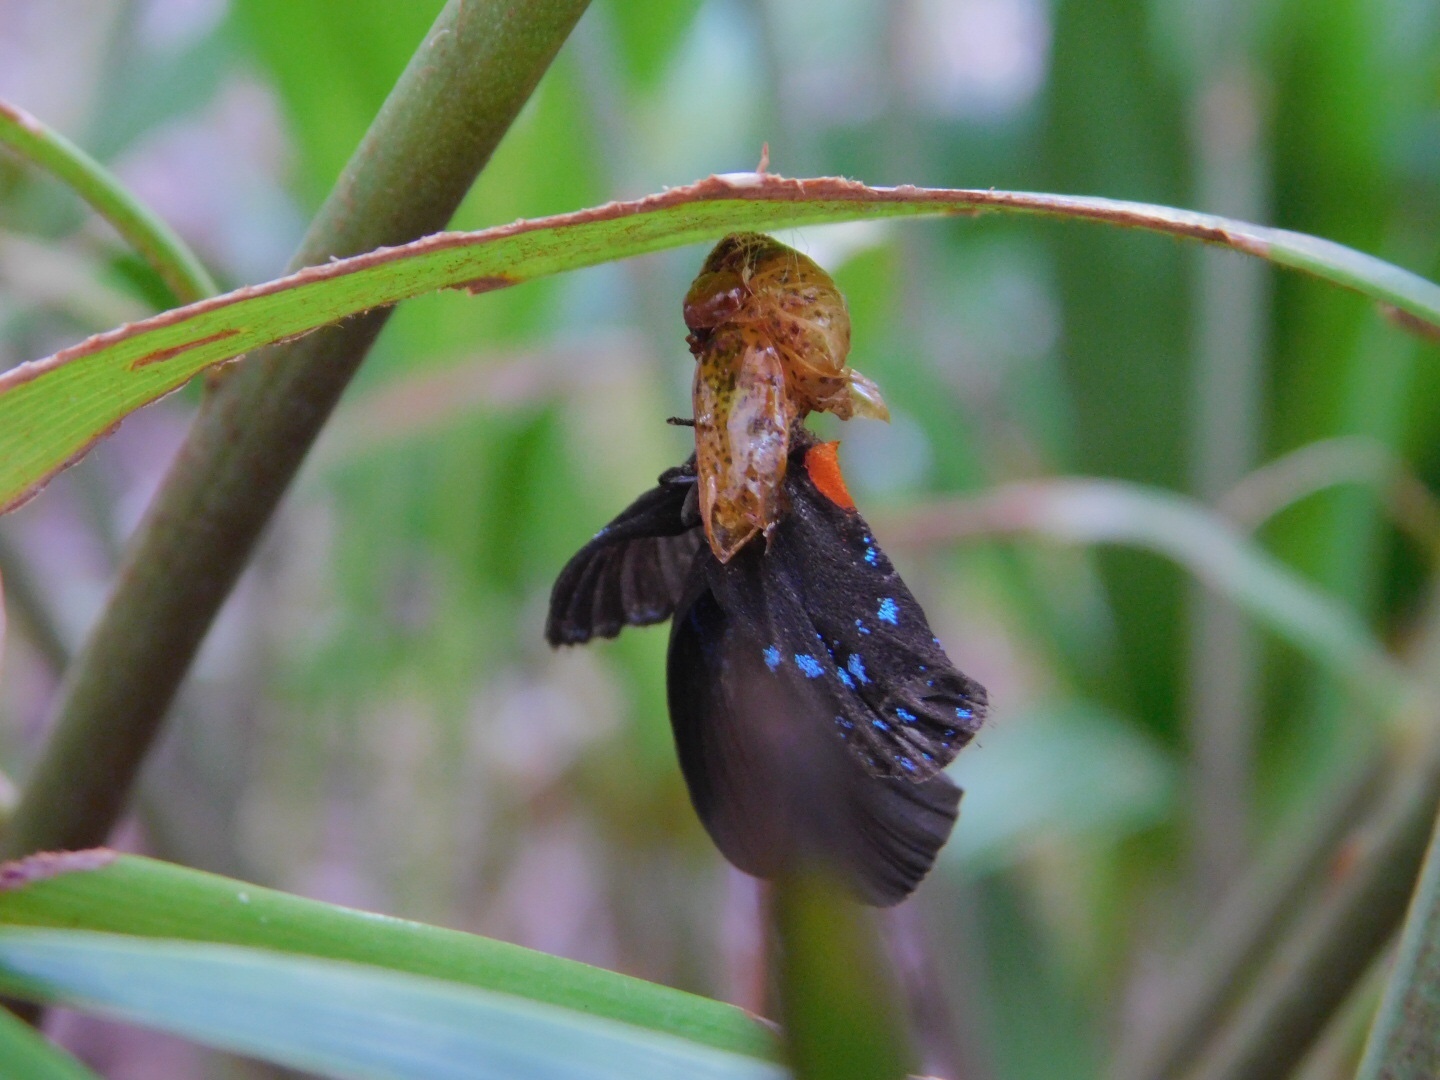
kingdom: Animalia
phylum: Arthropoda
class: Insecta
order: Lepidoptera
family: Lycaenidae
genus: Eumaeus
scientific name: Eumaeus atala
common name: Atala
